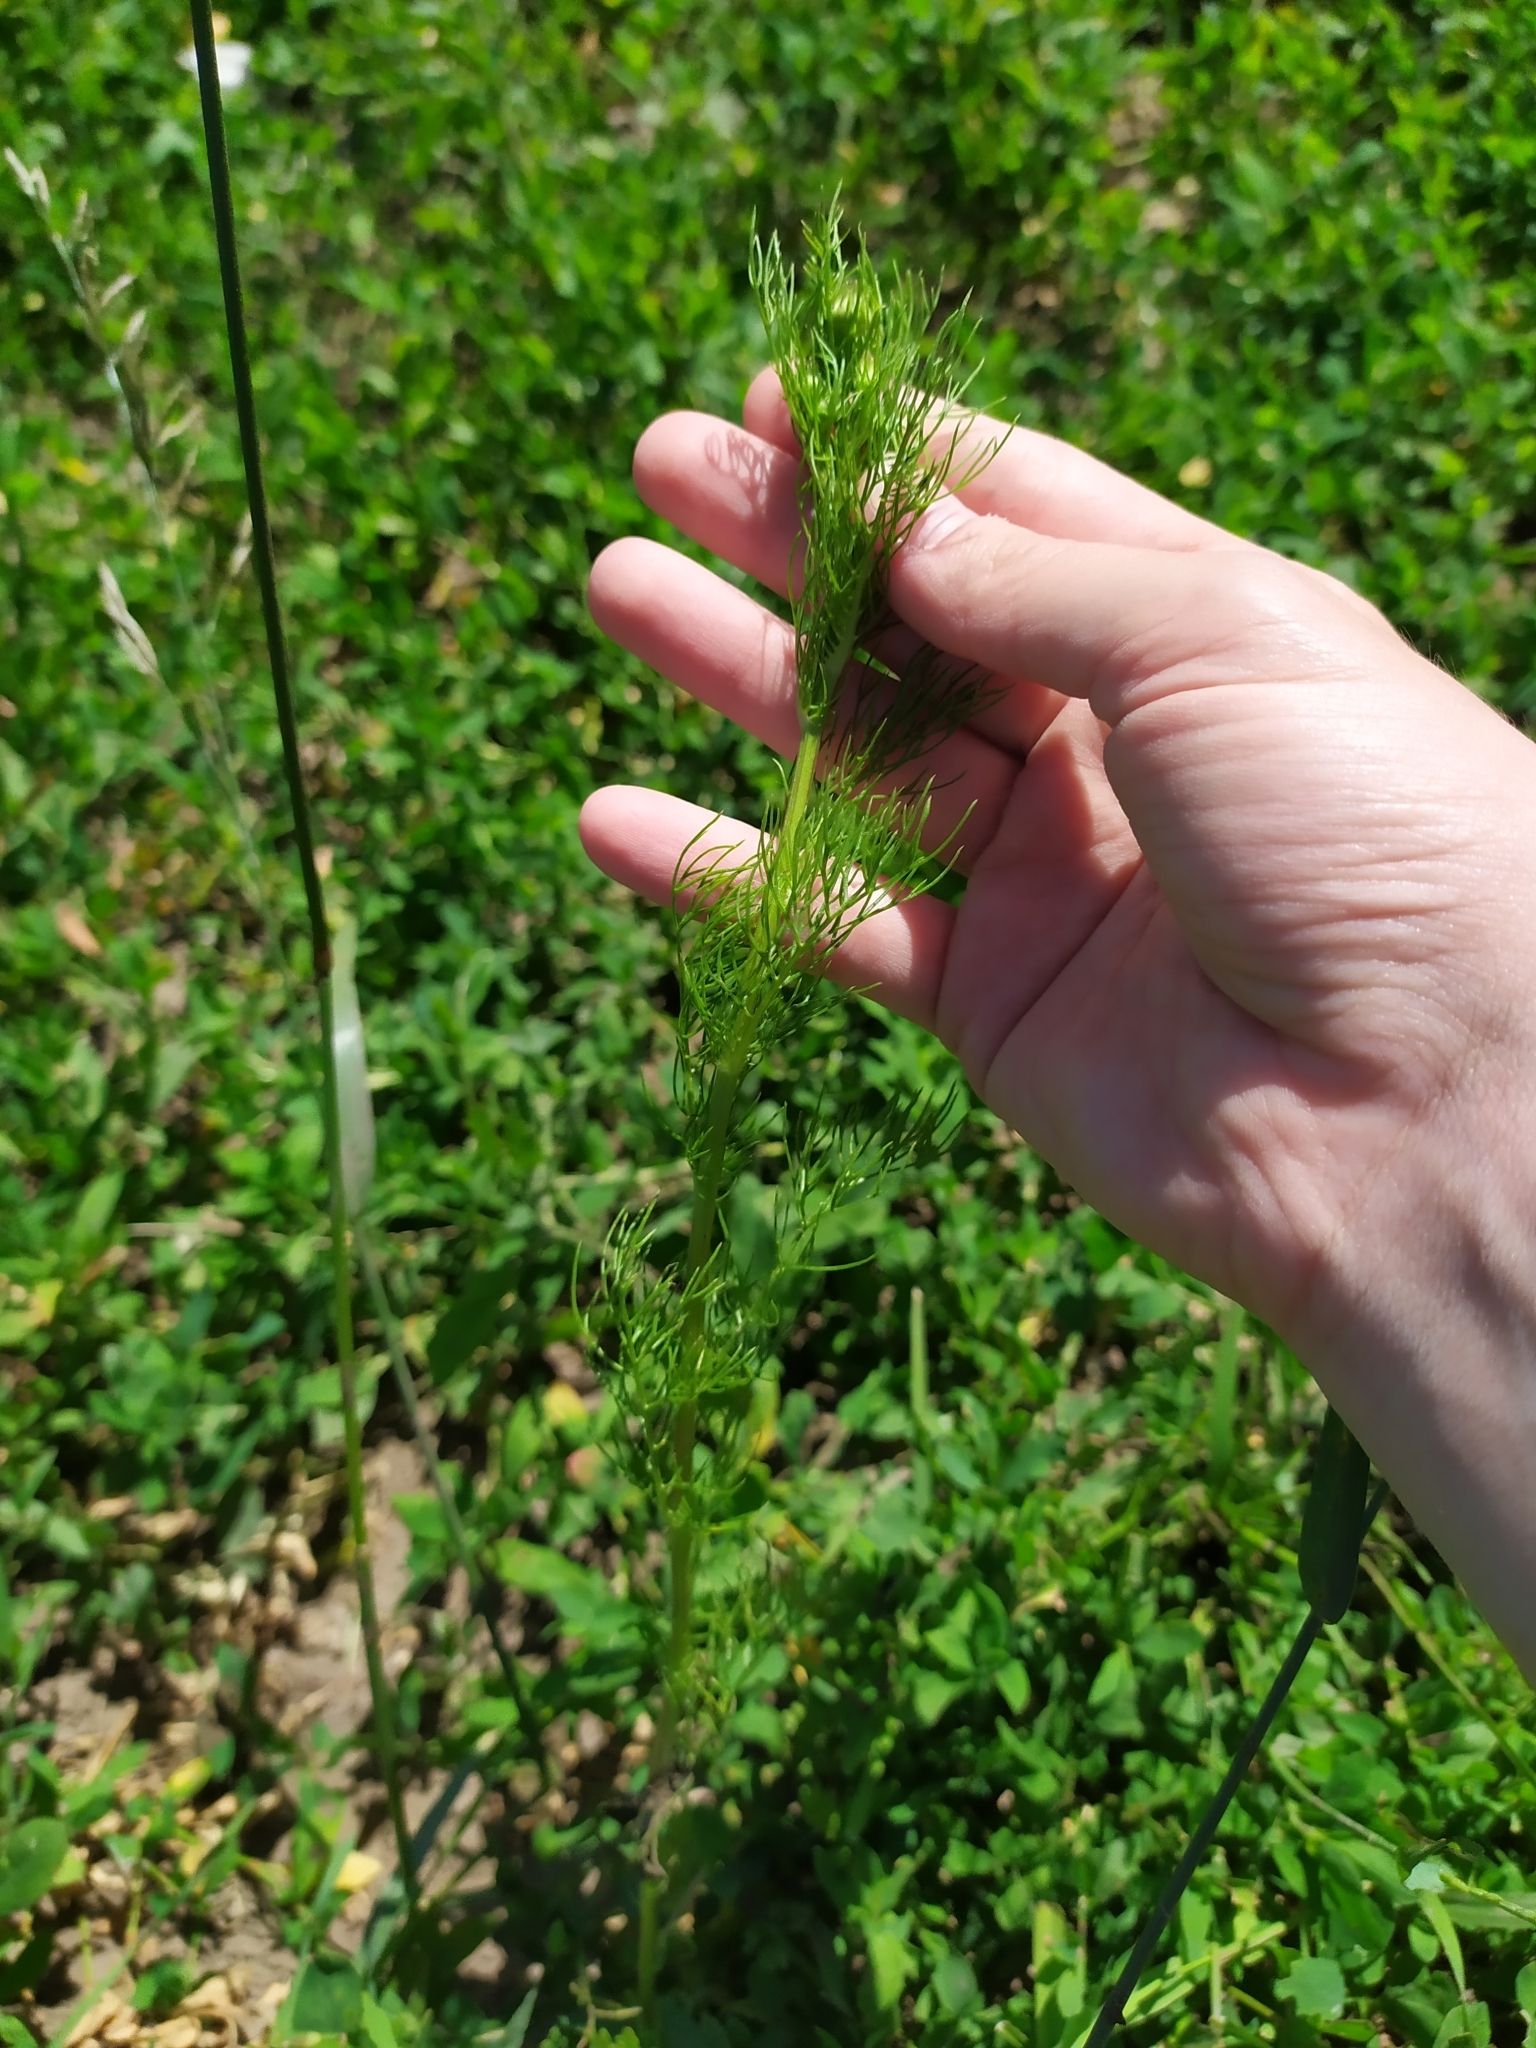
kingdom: Plantae
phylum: Tracheophyta
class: Magnoliopsida
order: Asterales
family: Asteraceae
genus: Tripleurospermum
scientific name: Tripleurospermum inodorum
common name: Scentless mayweed
